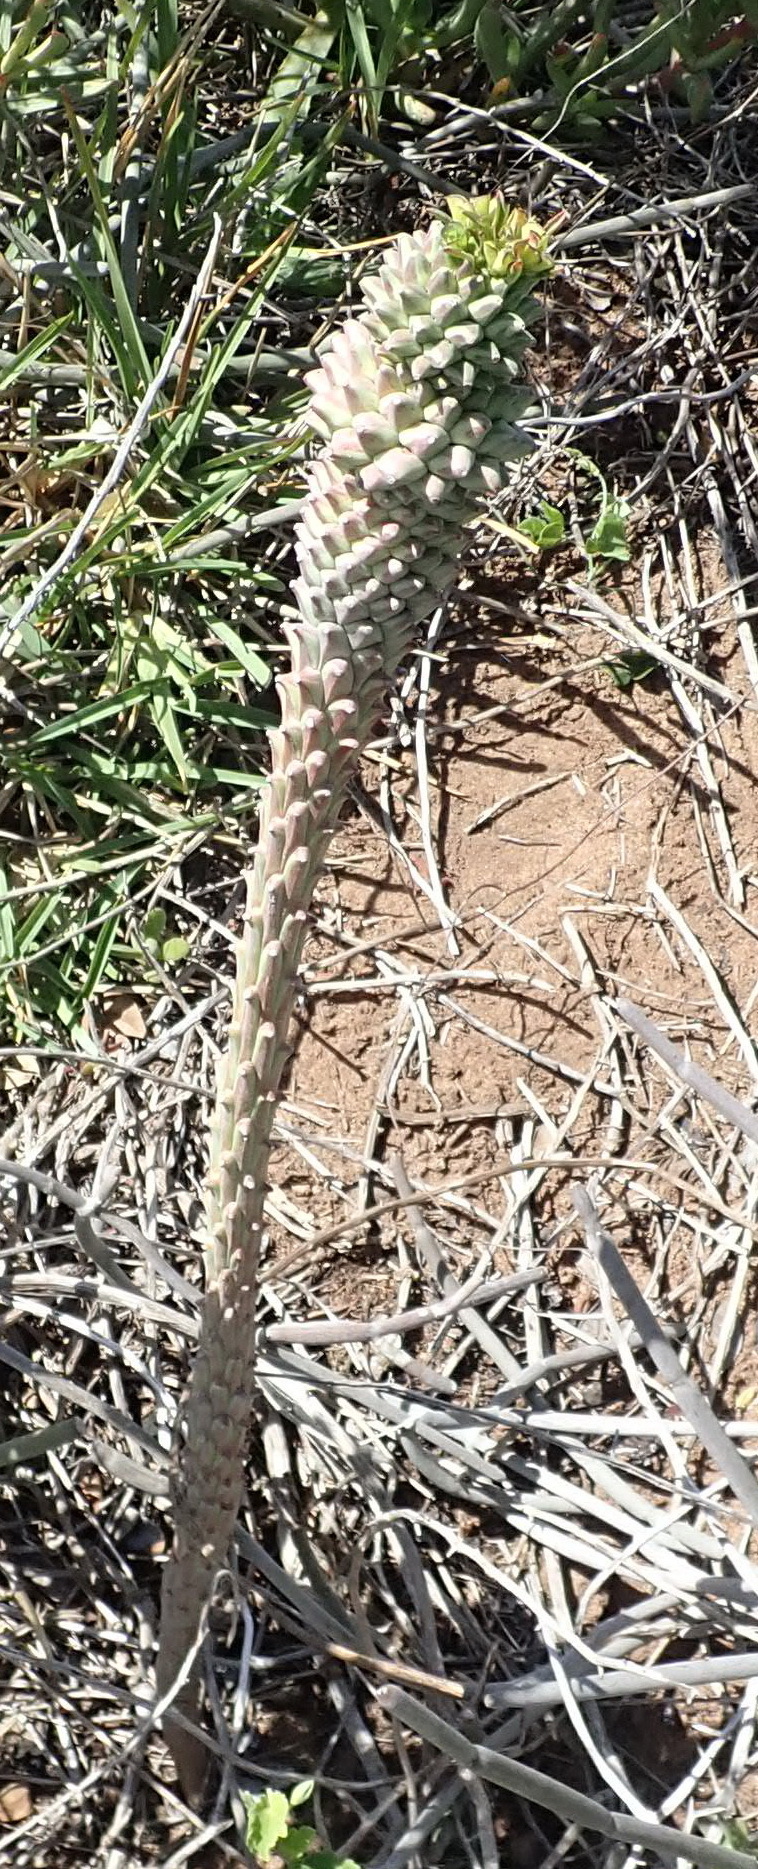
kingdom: Plantae
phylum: Tracheophyta
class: Magnoliopsida
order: Malpighiales
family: Euphorbiaceae
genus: Euphorbia
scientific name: Euphorbia clandestina
